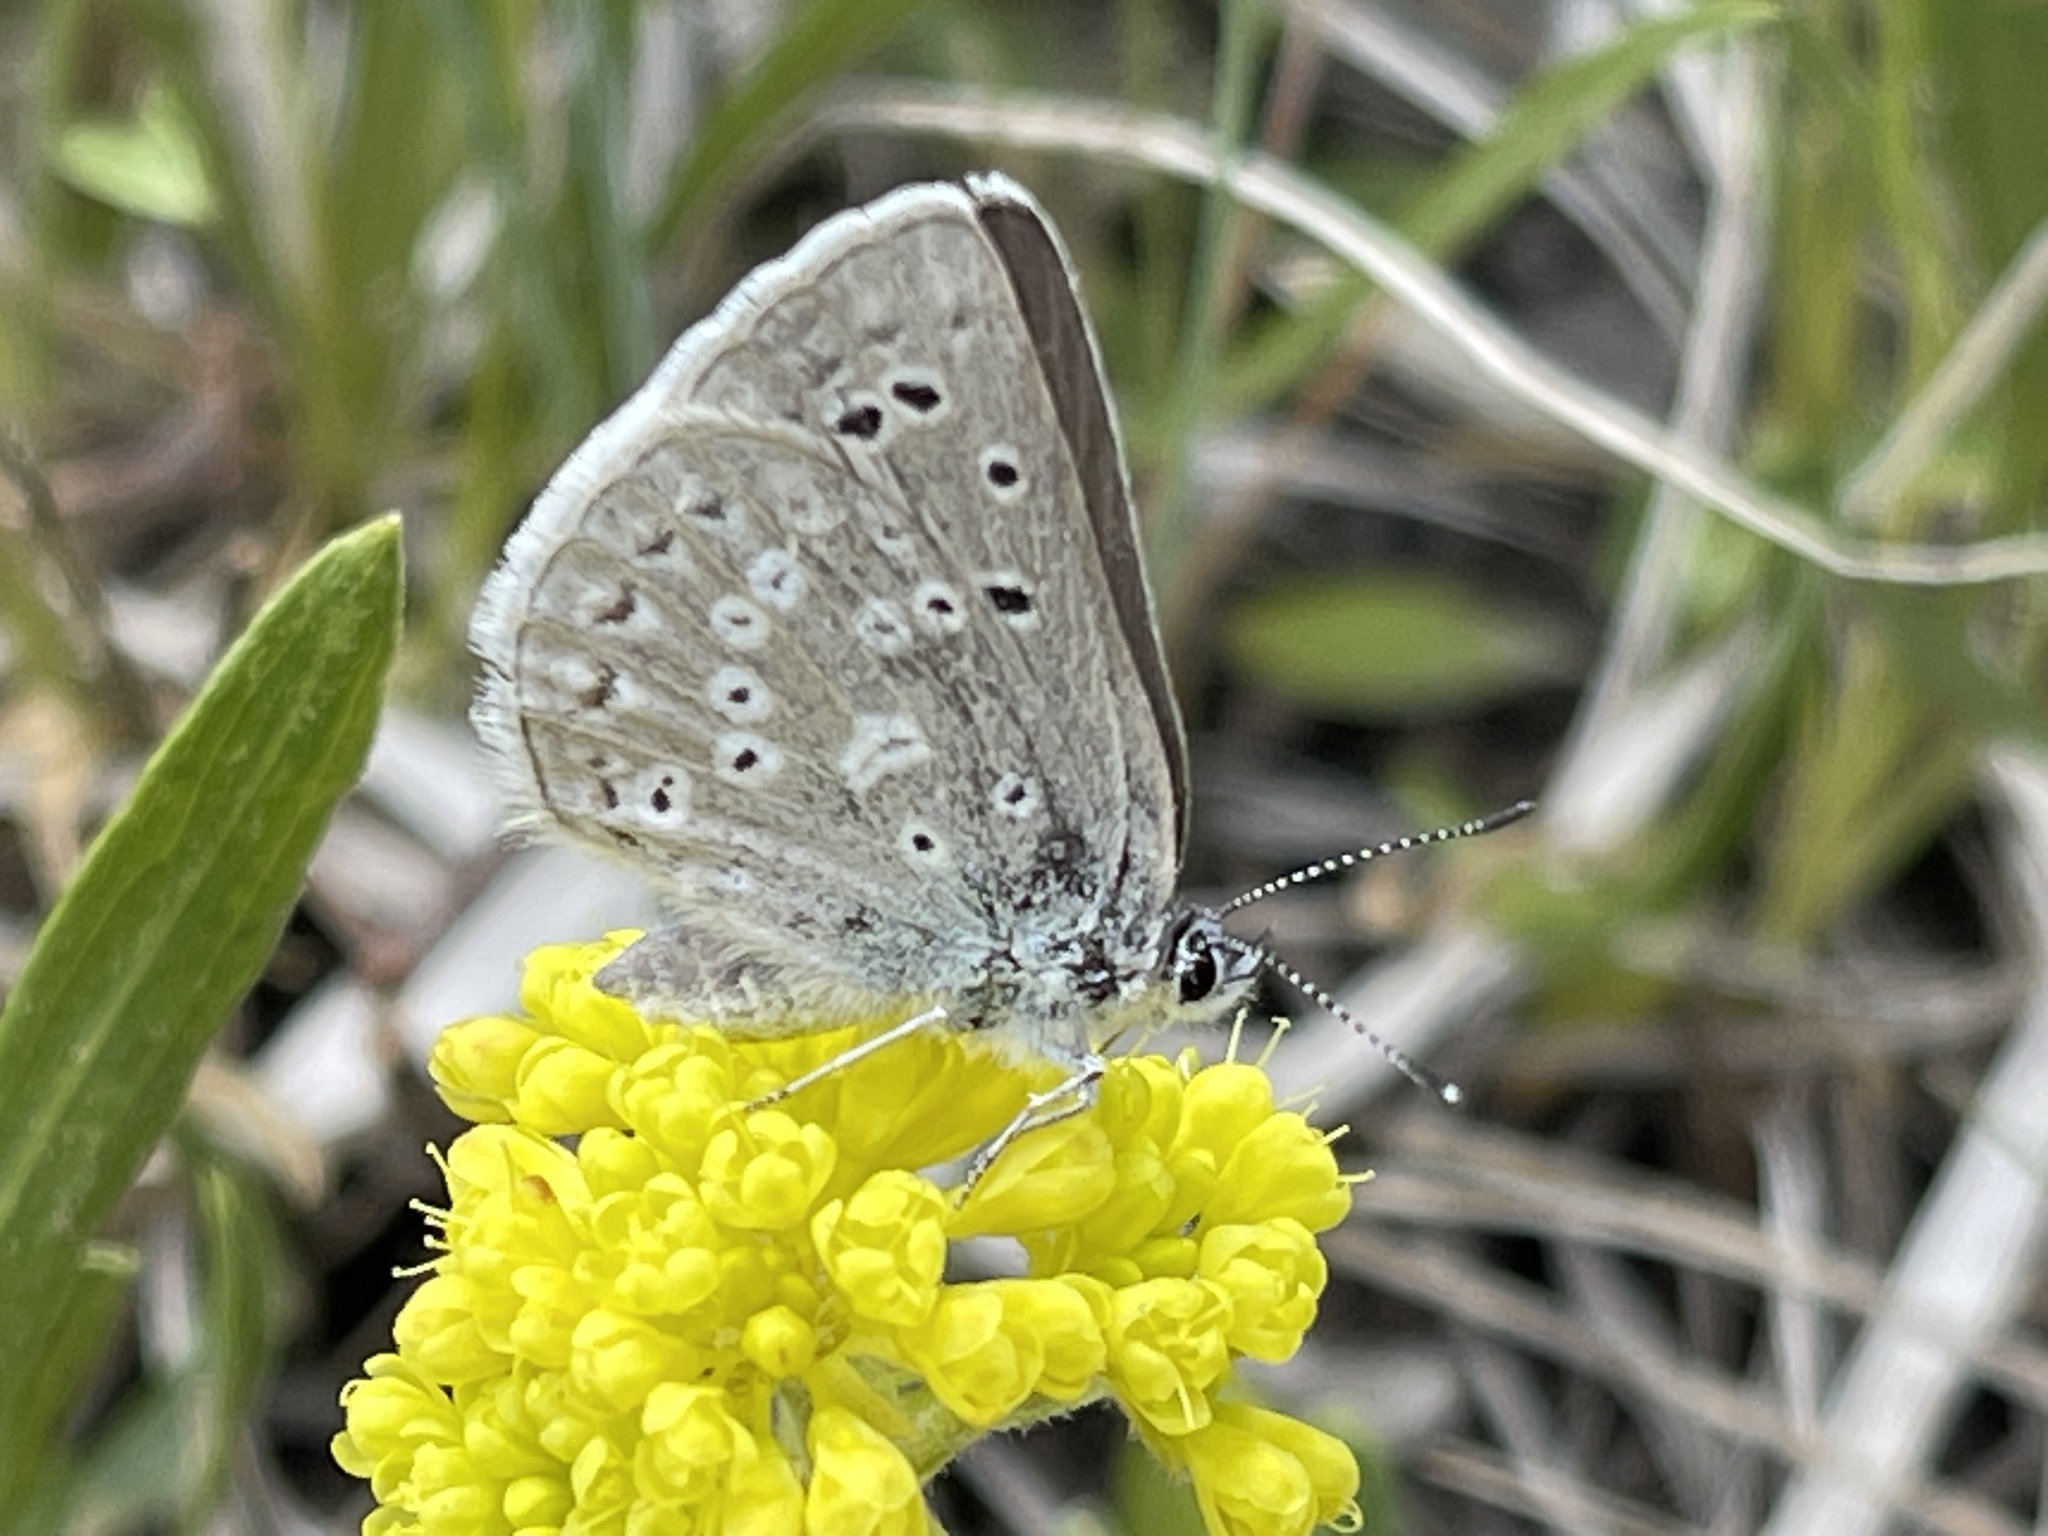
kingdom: Animalia
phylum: Arthropoda
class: Insecta
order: Lepidoptera
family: Lycaenidae
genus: Icaricia
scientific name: Icaricia icarioides
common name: Boisduval's blue
